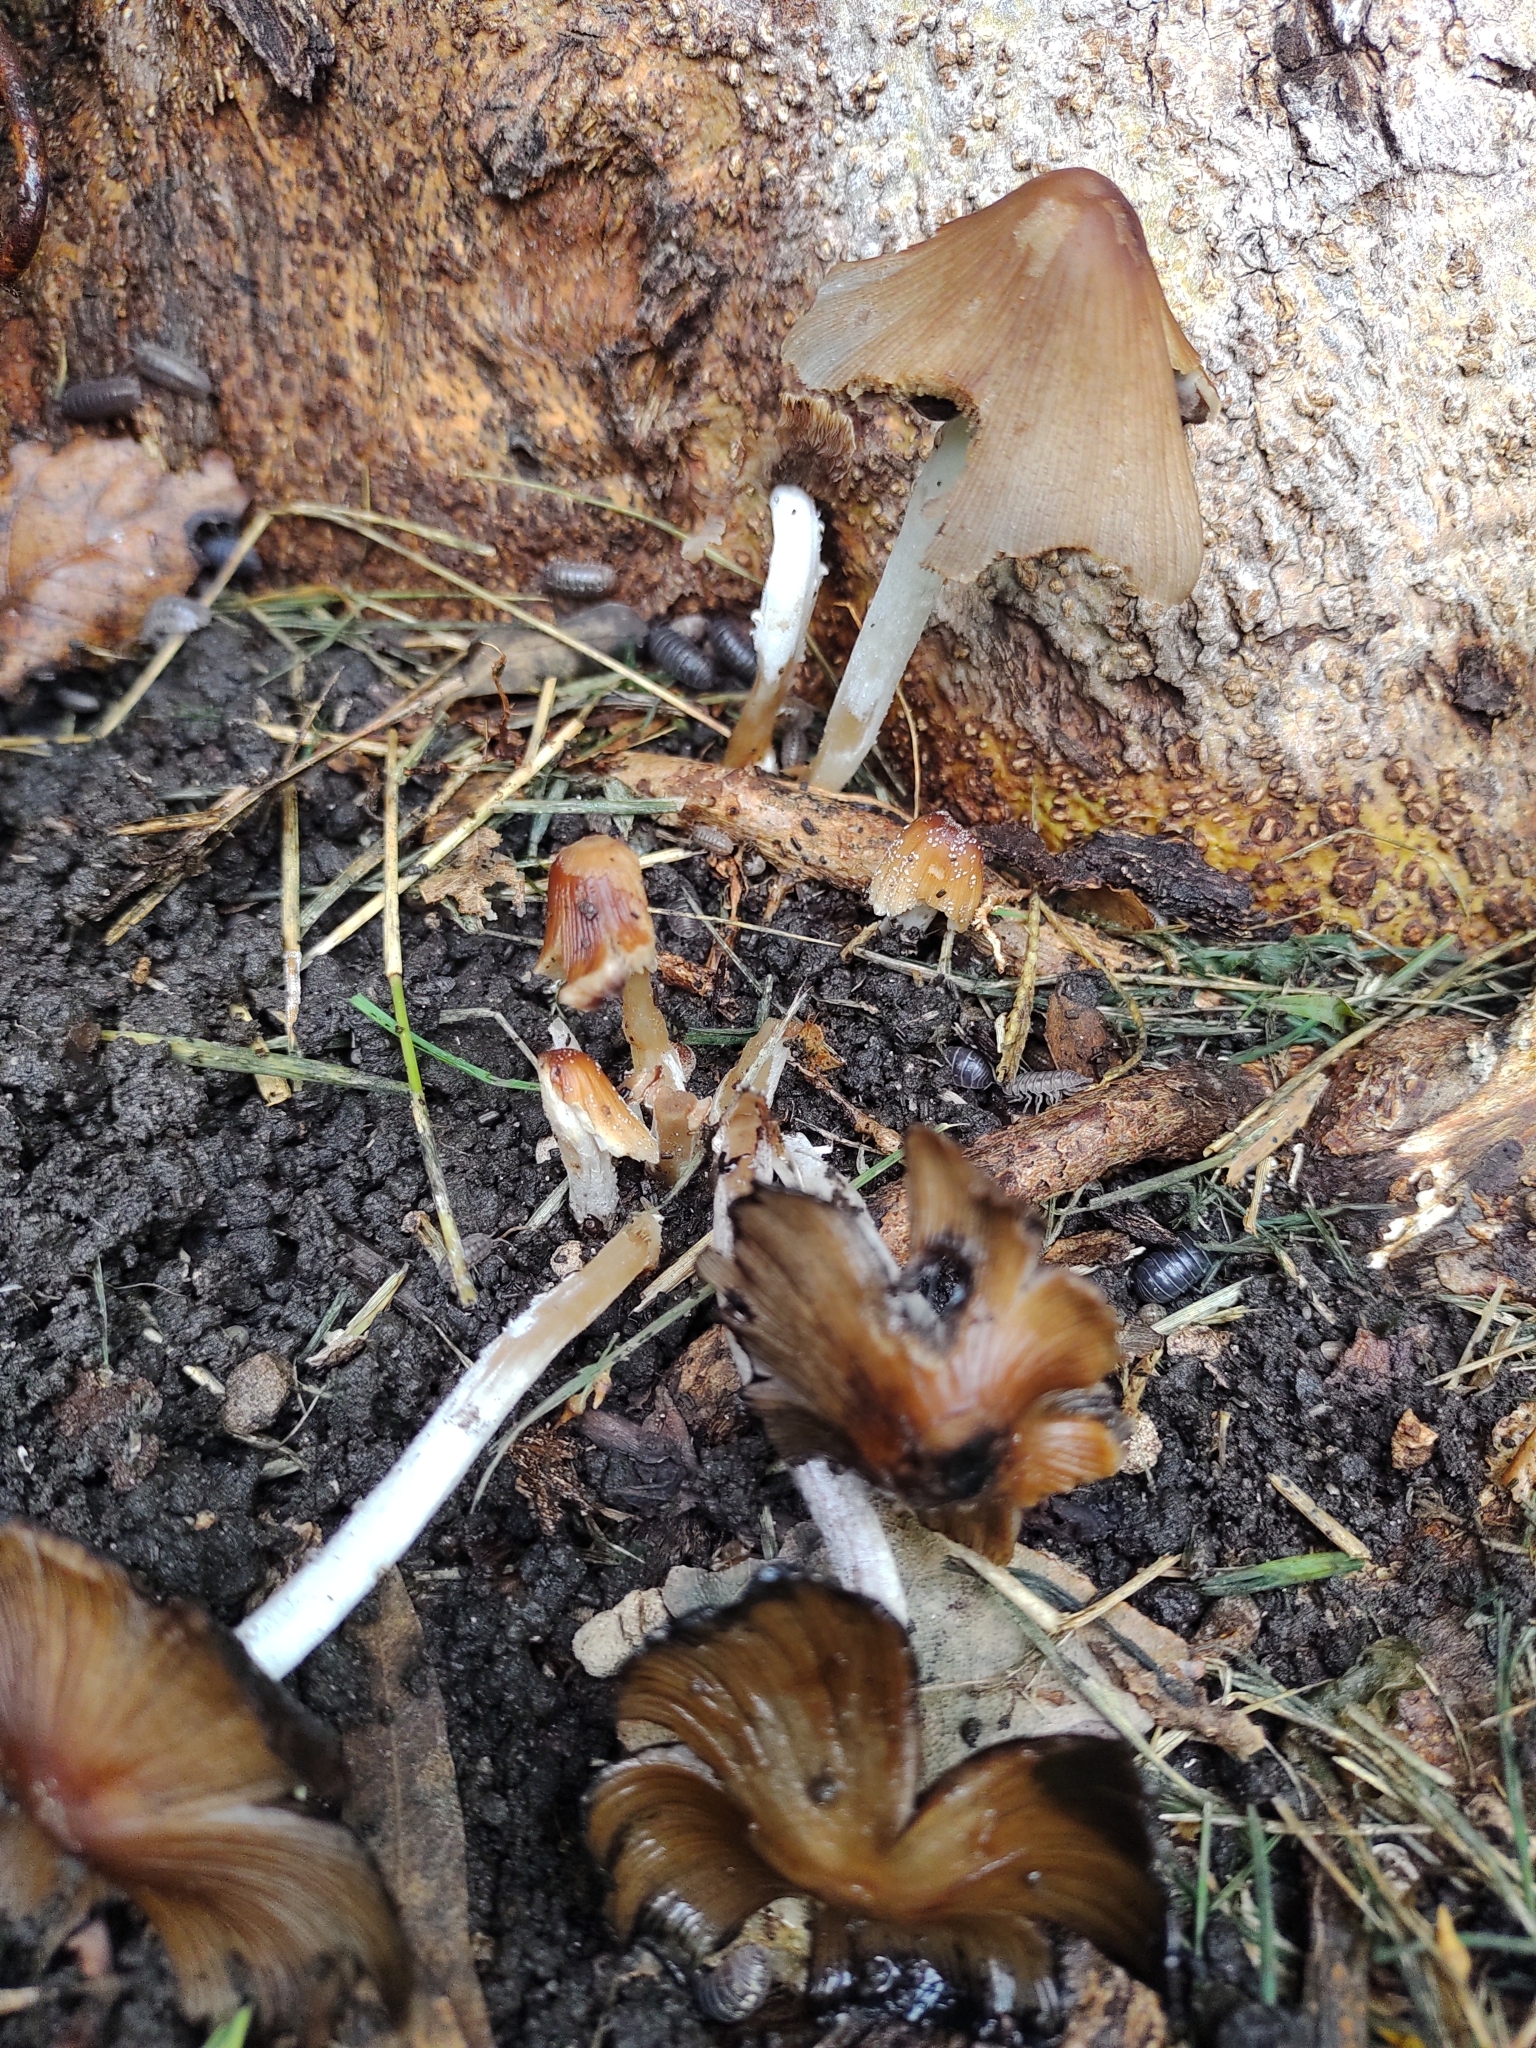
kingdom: Fungi
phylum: Basidiomycota
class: Agaricomycetes
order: Agaricales
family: Psathyrellaceae
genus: Coprinellus
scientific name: Coprinellus domesticus
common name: Firerug inkcap
